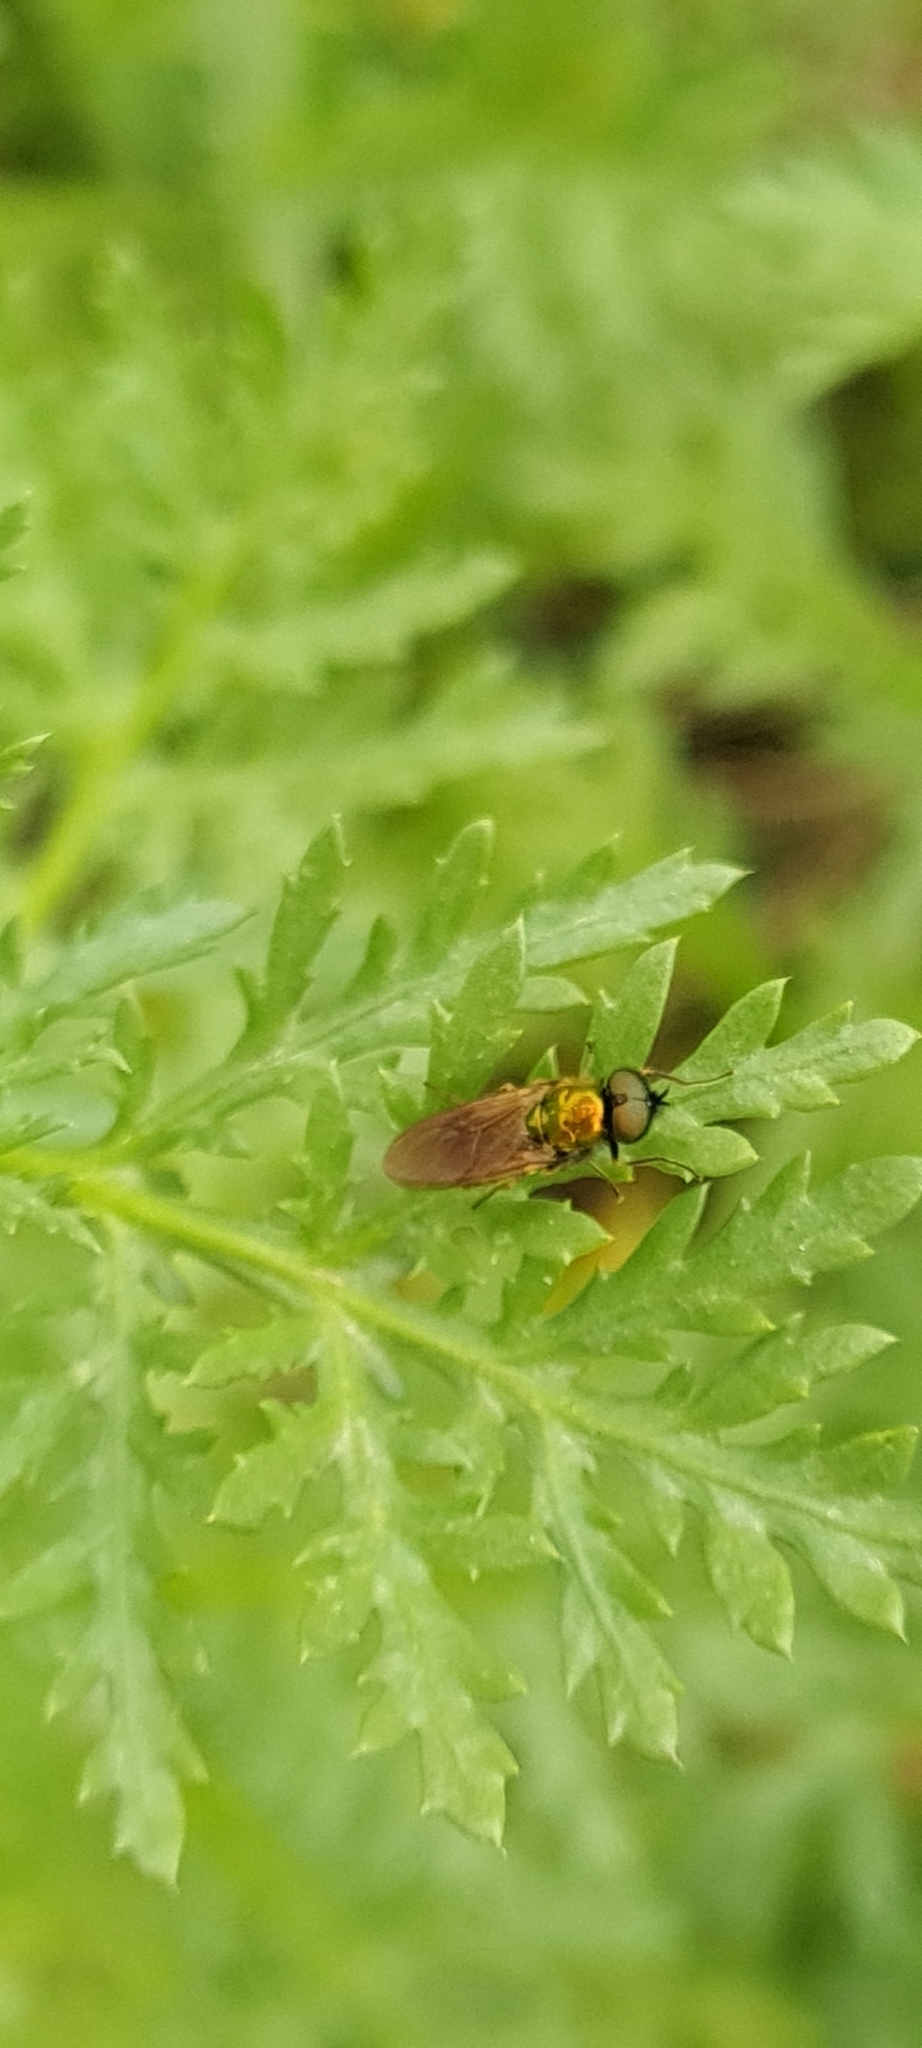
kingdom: Animalia
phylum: Arthropoda
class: Insecta
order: Diptera
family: Stratiomyidae
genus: Chloromyia
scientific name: Chloromyia formosa
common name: Soldier fly
